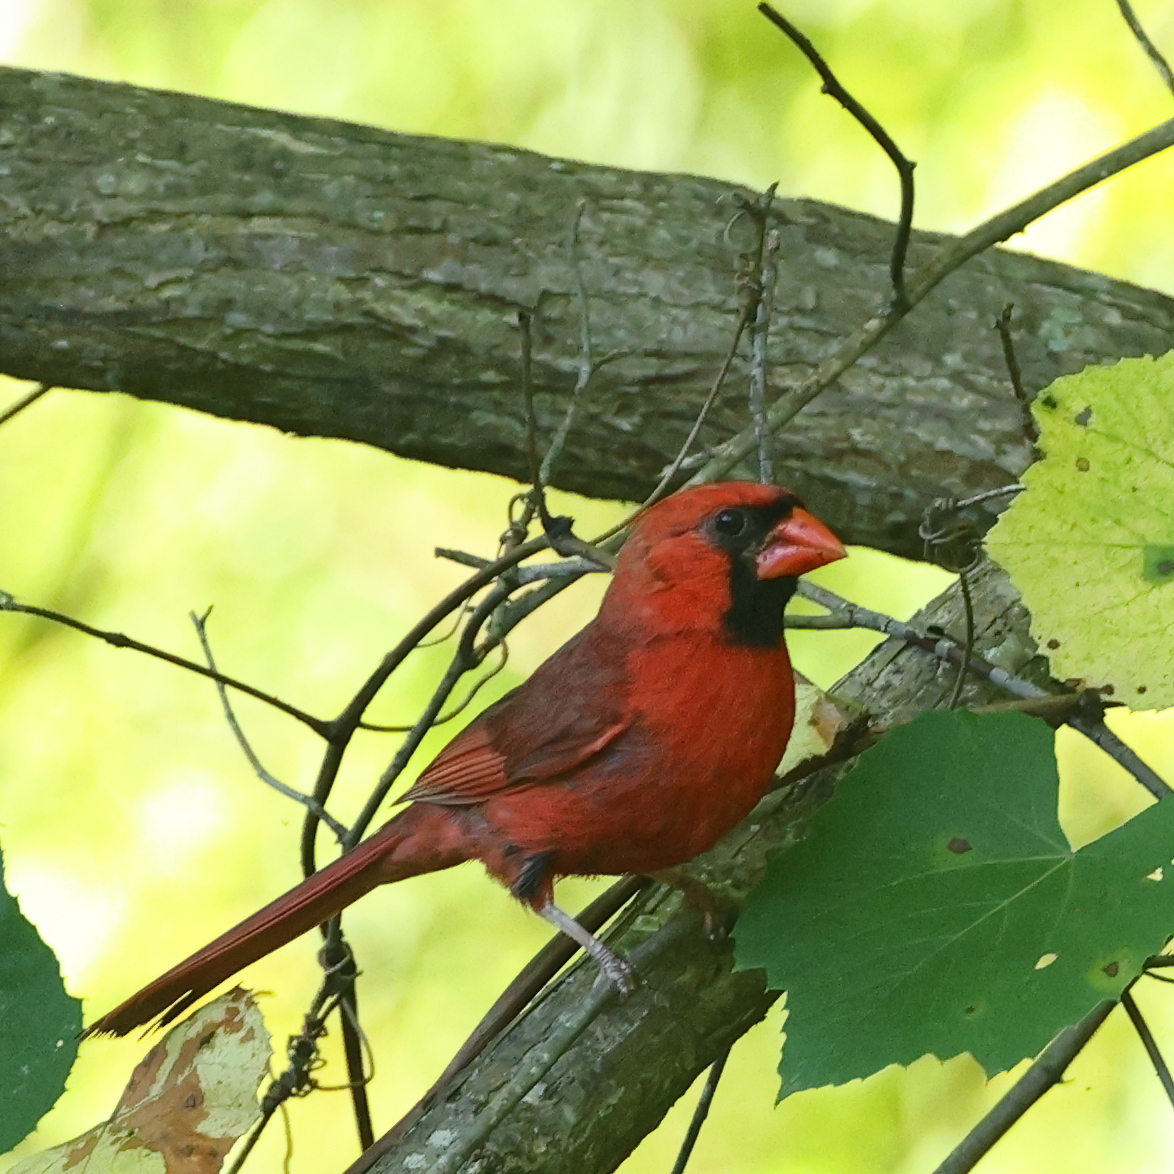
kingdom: Animalia
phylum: Chordata
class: Aves
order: Passeriformes
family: Cardinalidae
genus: Cardinalis
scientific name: Cardinalis cardinalis
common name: Northern cardinal
